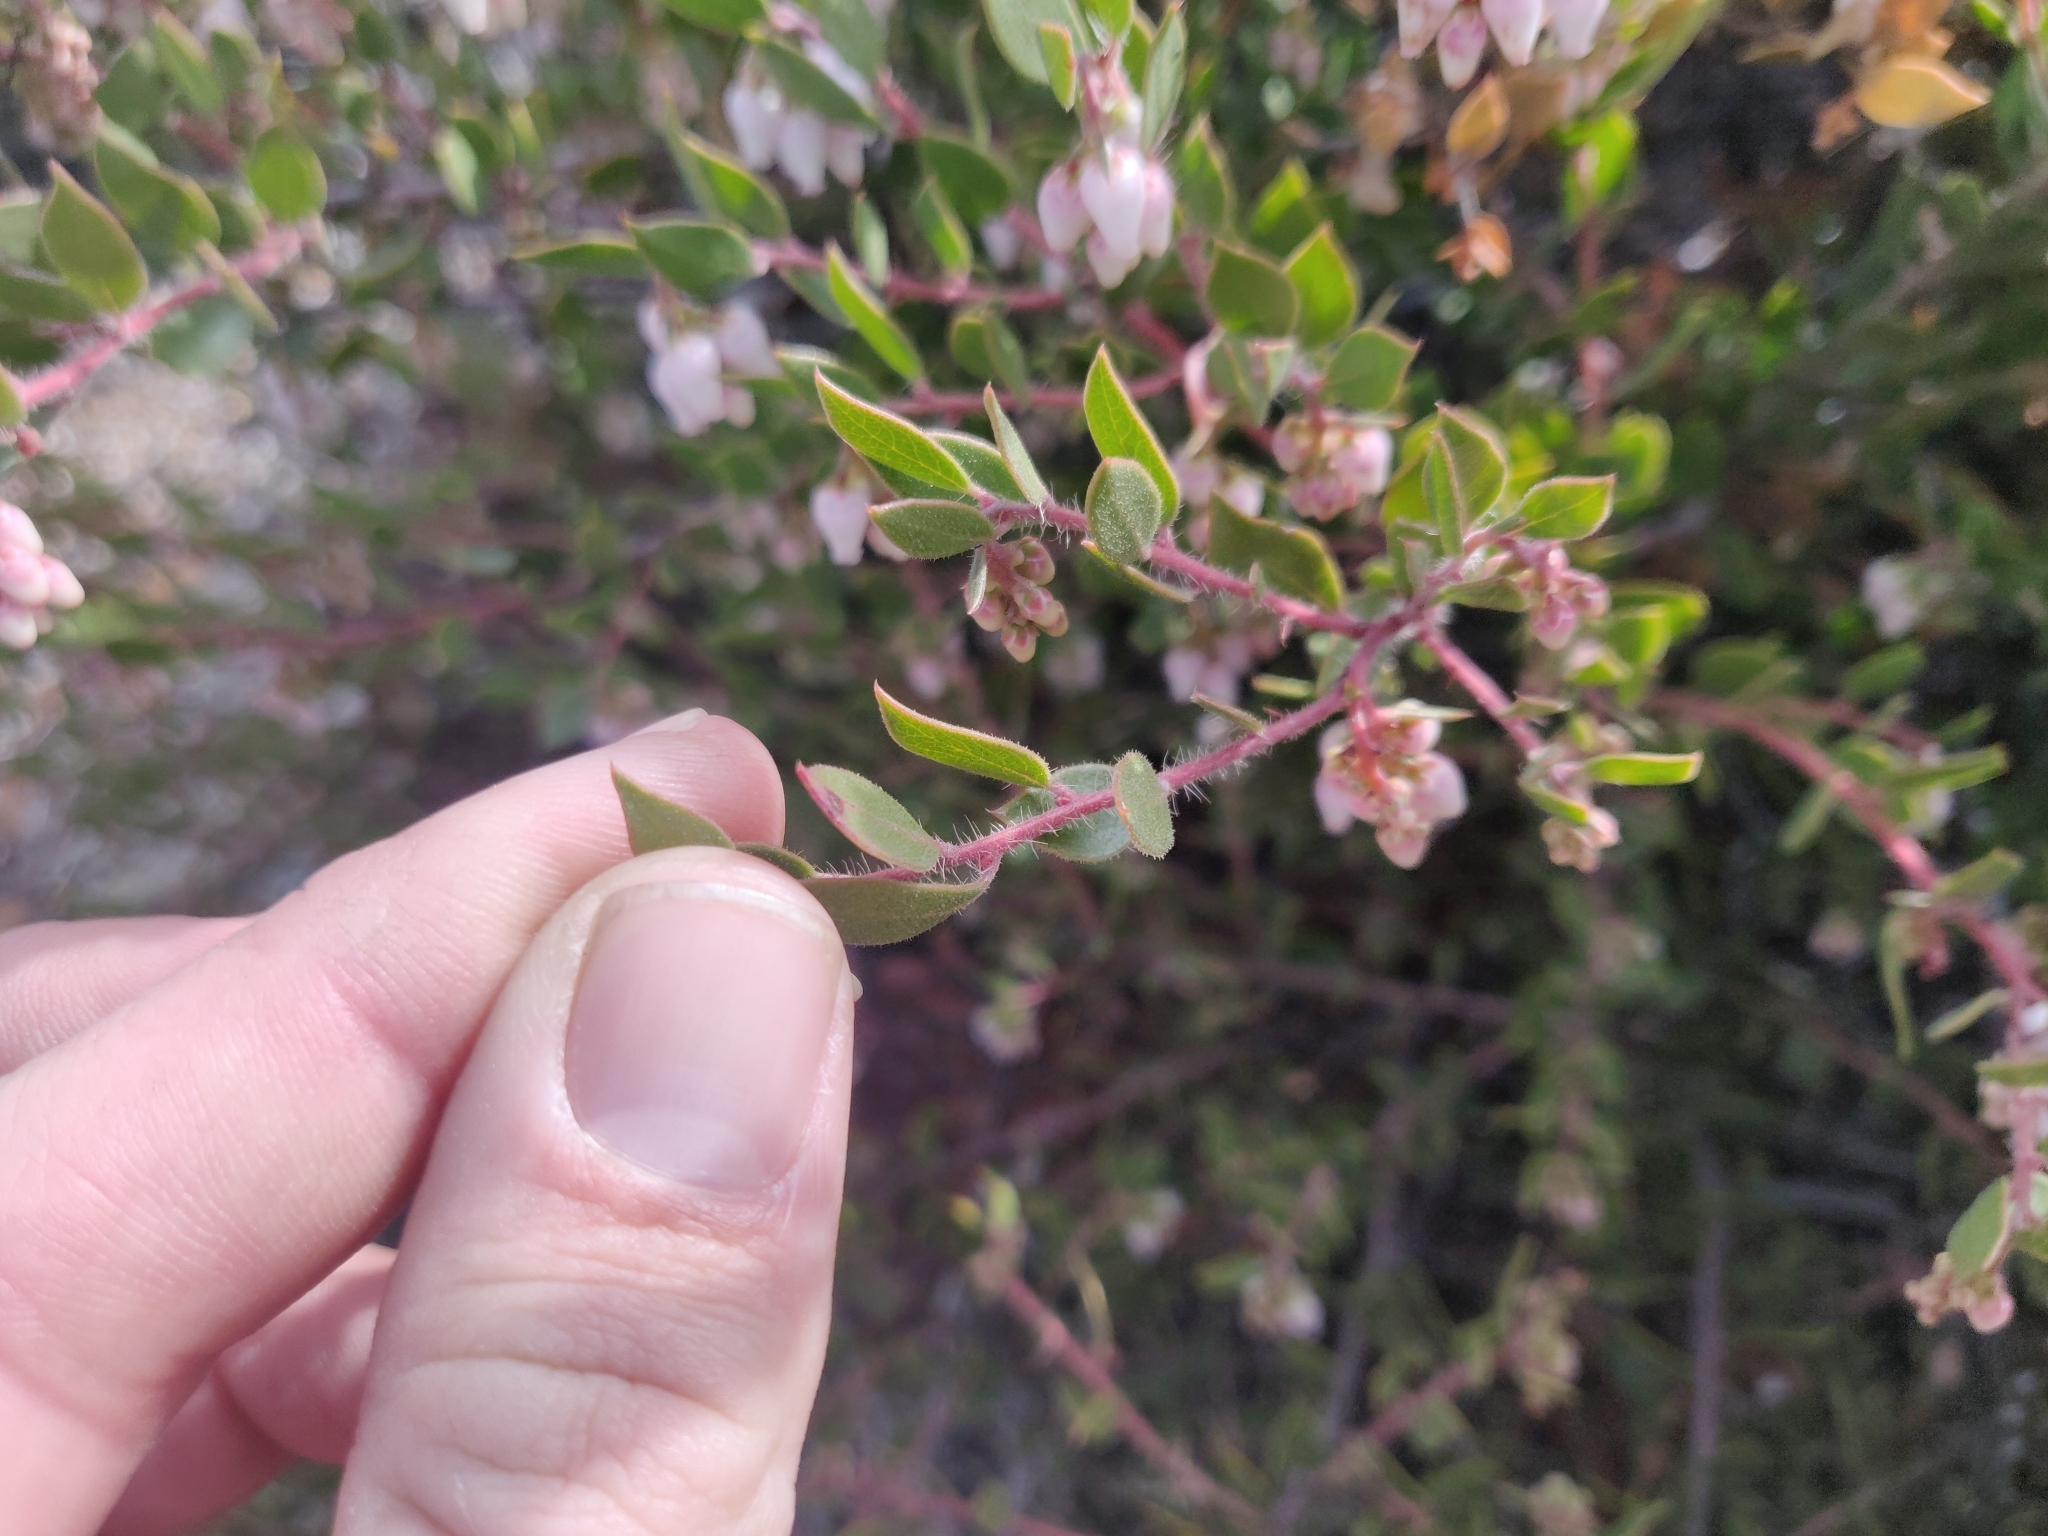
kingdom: Plantae
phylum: Tracheophyta
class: Magnoliopsida
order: Ericales
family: Ericaceae
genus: Arctostaphylos
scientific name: Arctostaphylos myrtifolia
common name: Ione manzanita
